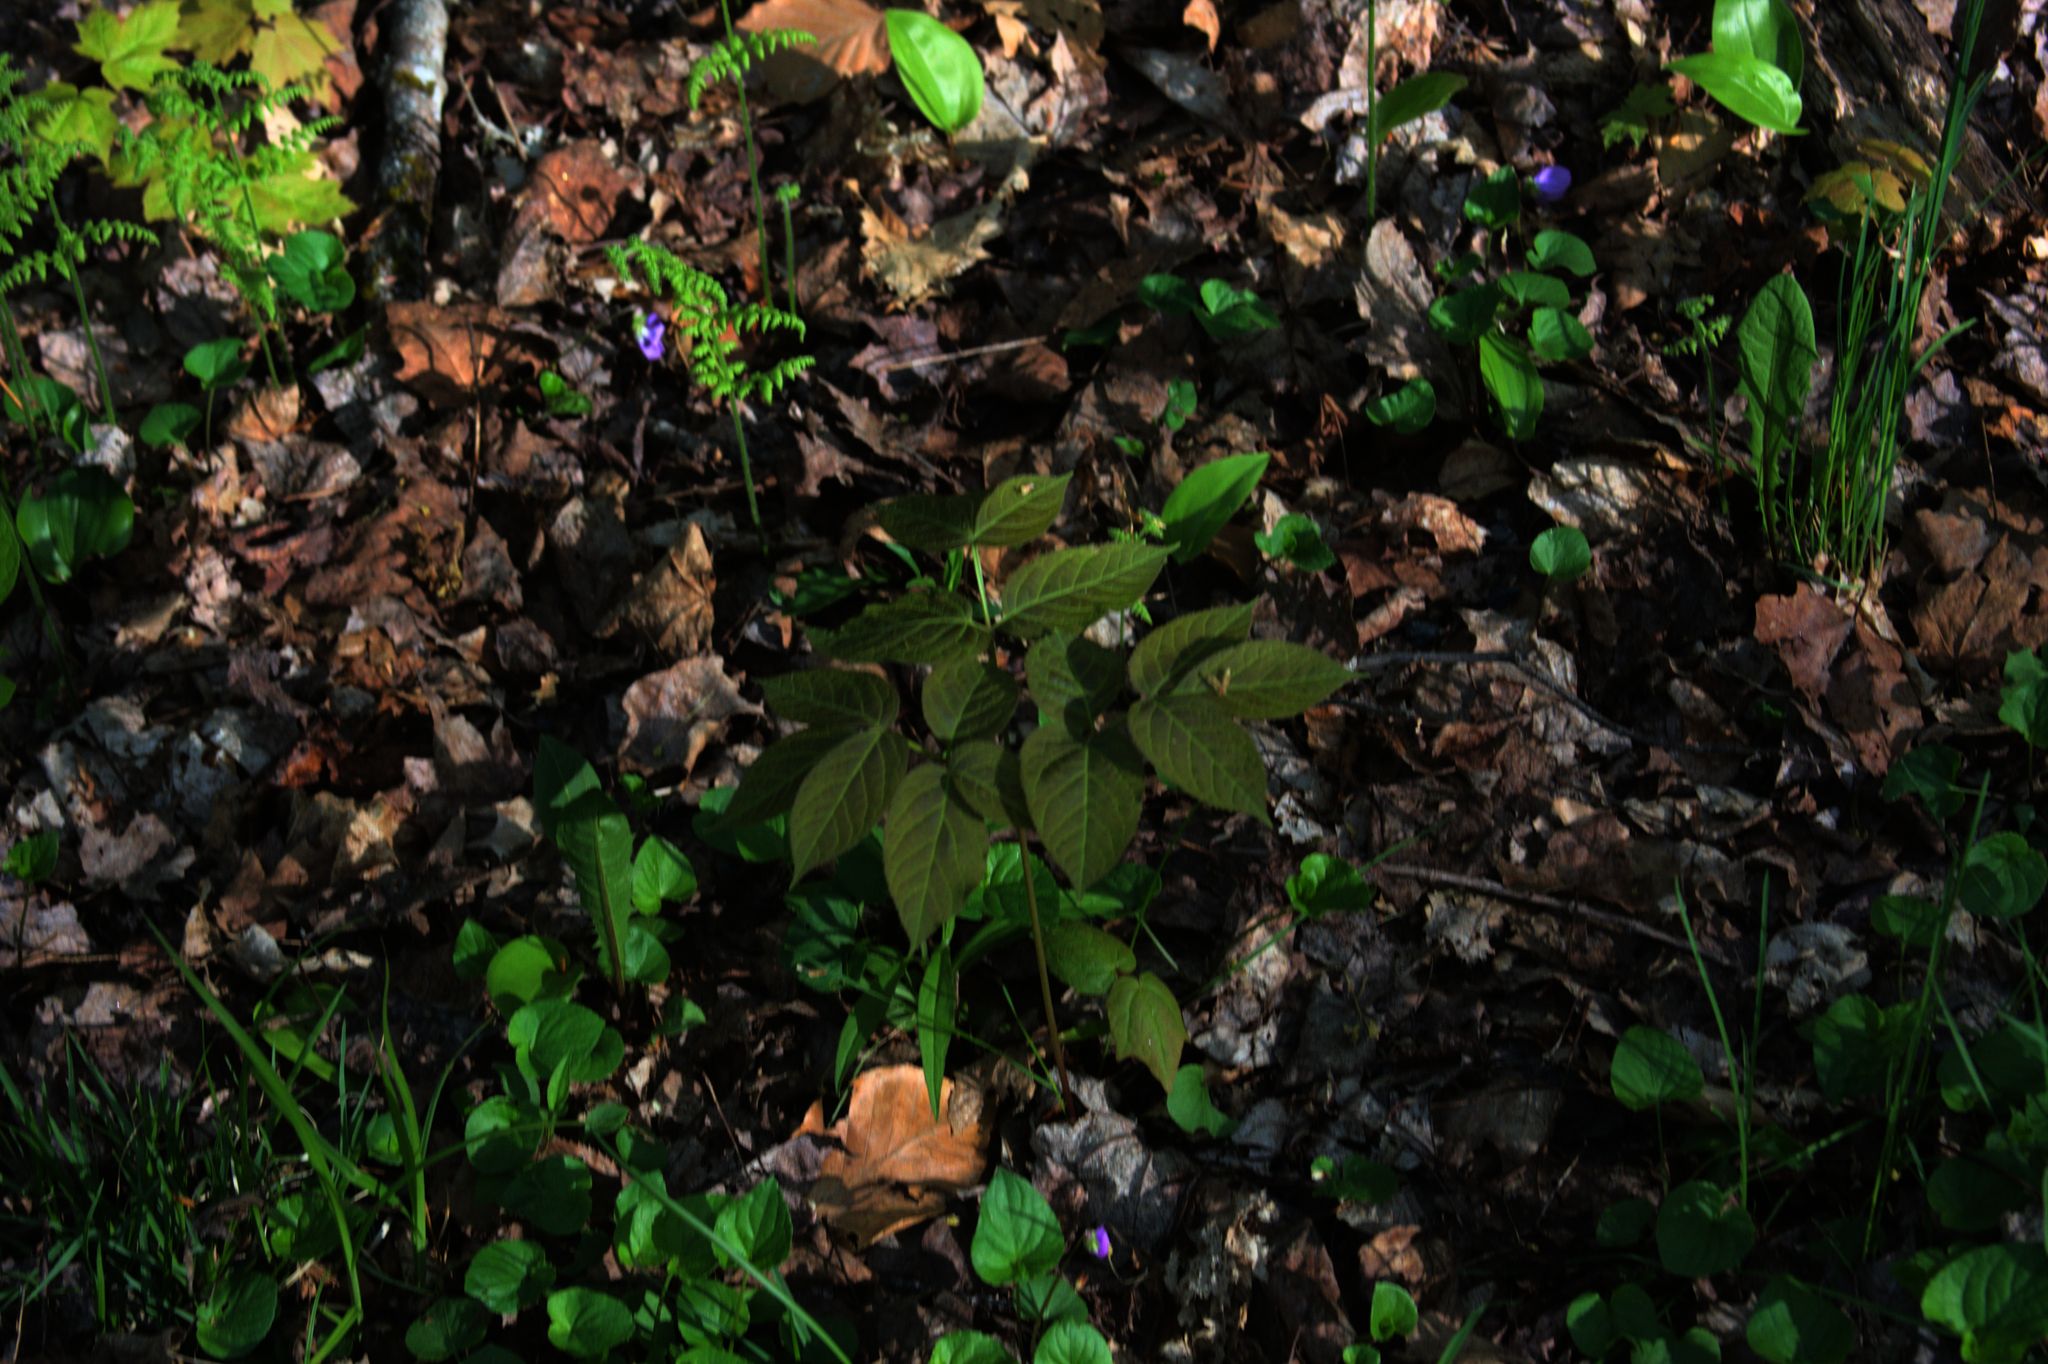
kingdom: Plantae
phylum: Tracheophyta
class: Magnoliopsida
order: Apiales
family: Araliaceae
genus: Aralia
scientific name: Aralia nudicaulis
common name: Wild sarsaparilla
